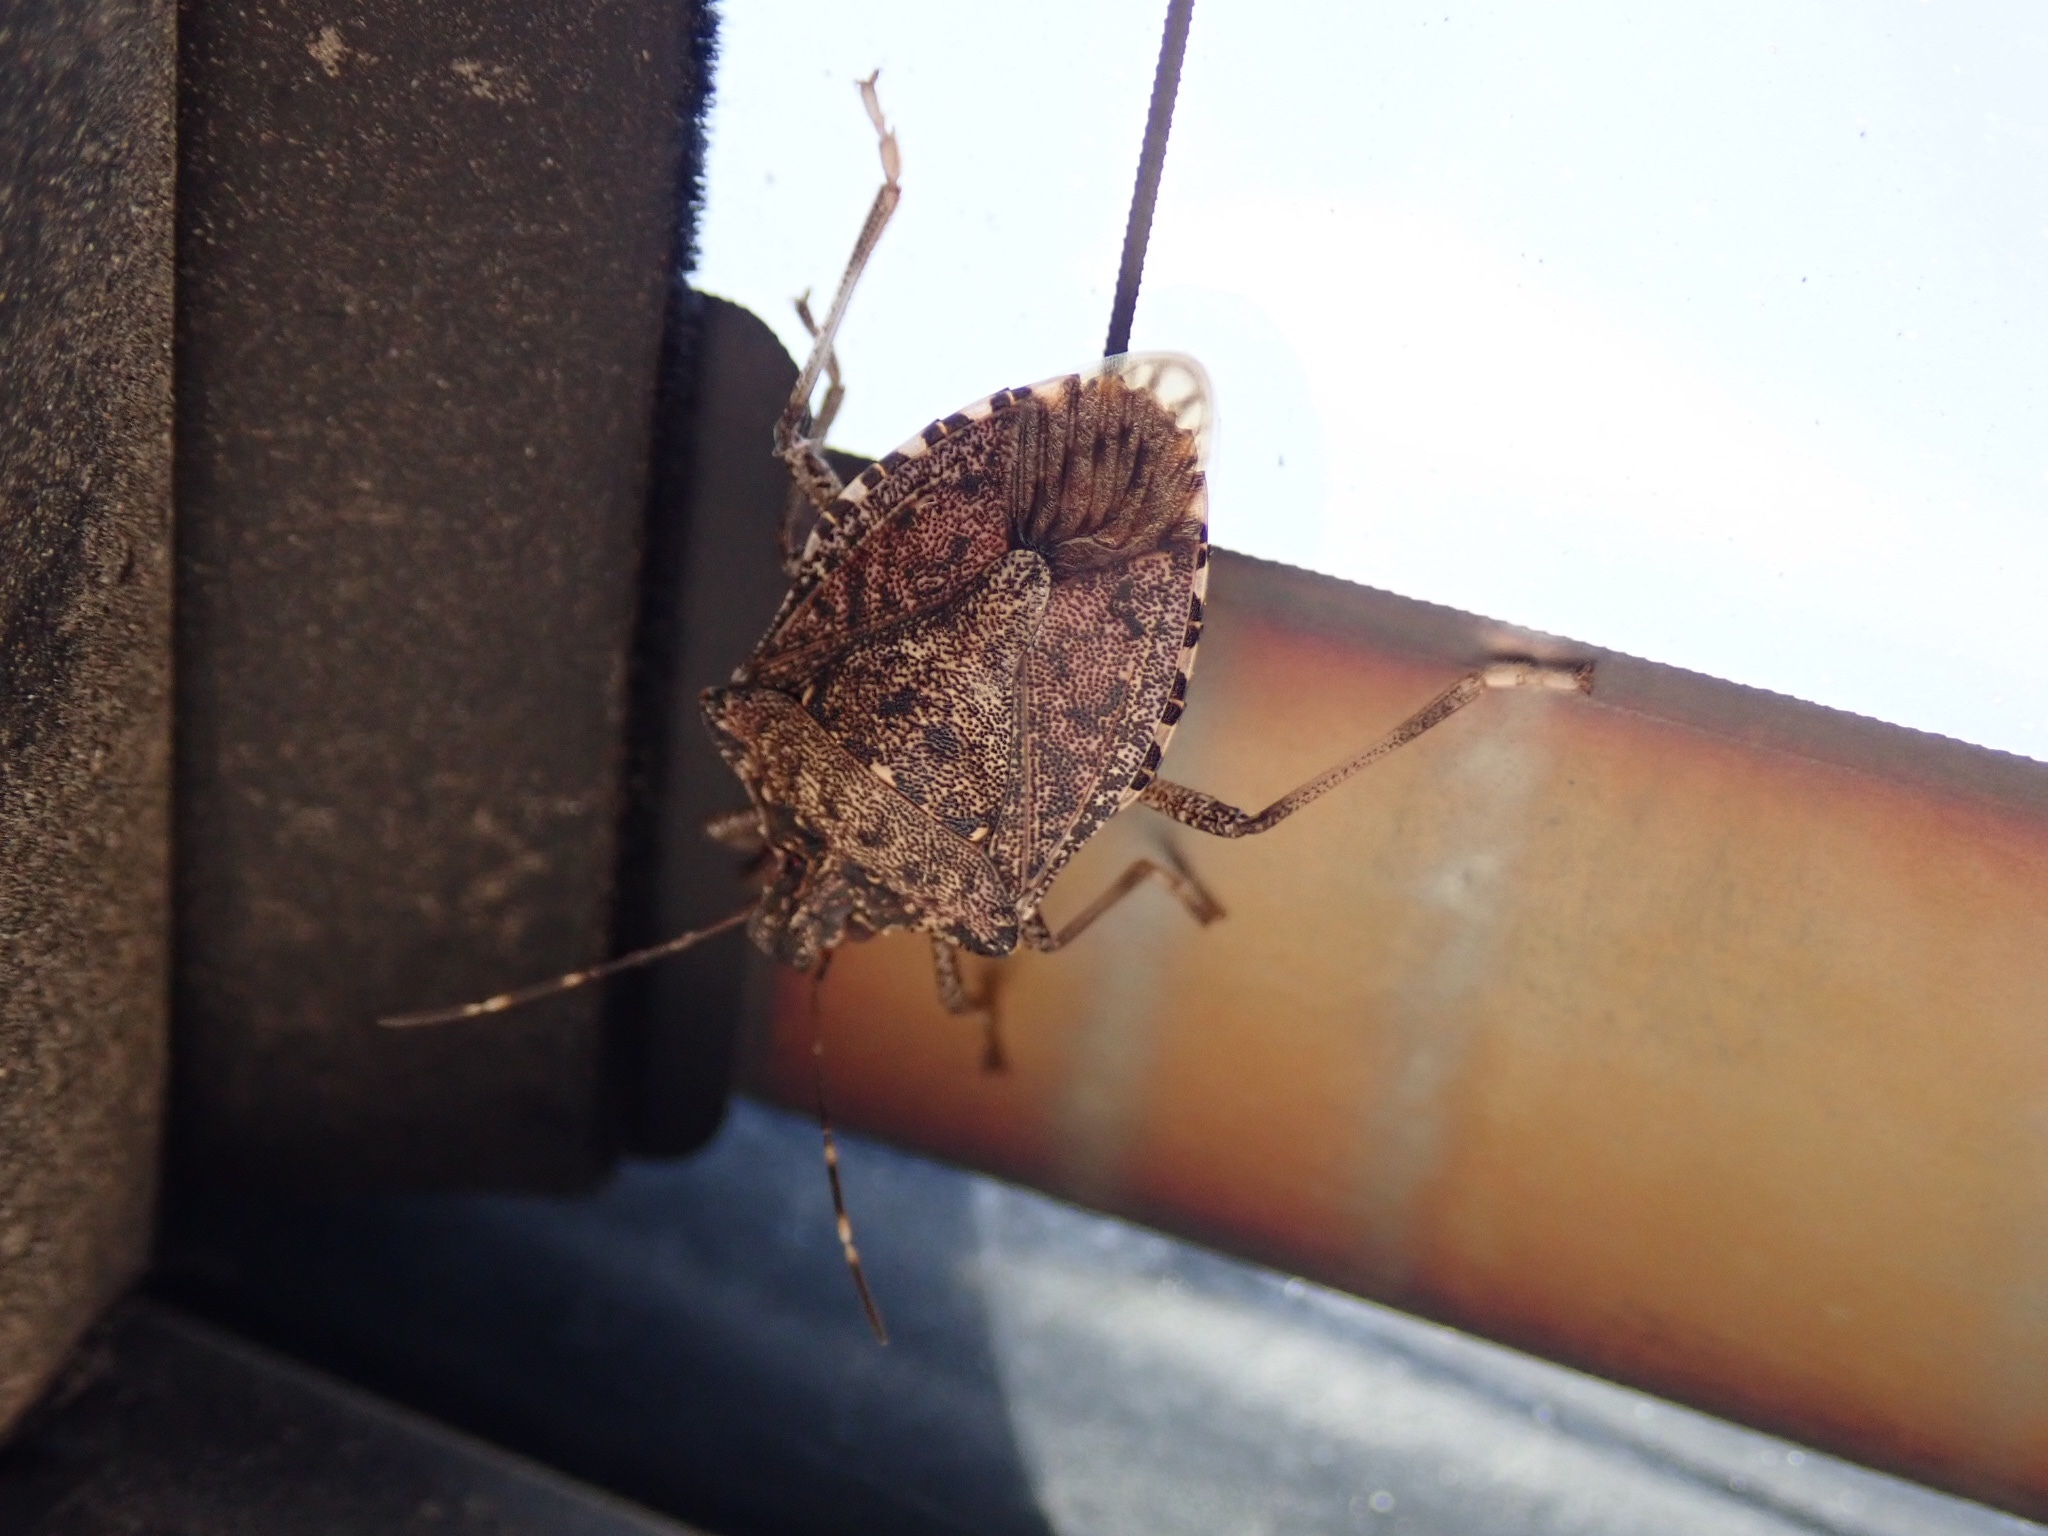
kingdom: Animalia
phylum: Arthropoda
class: Insecta
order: Hemiptera
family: Pentatomidae
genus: Halyomorpha
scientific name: Halyomorpha halys
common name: Brown marmorated stink bug
